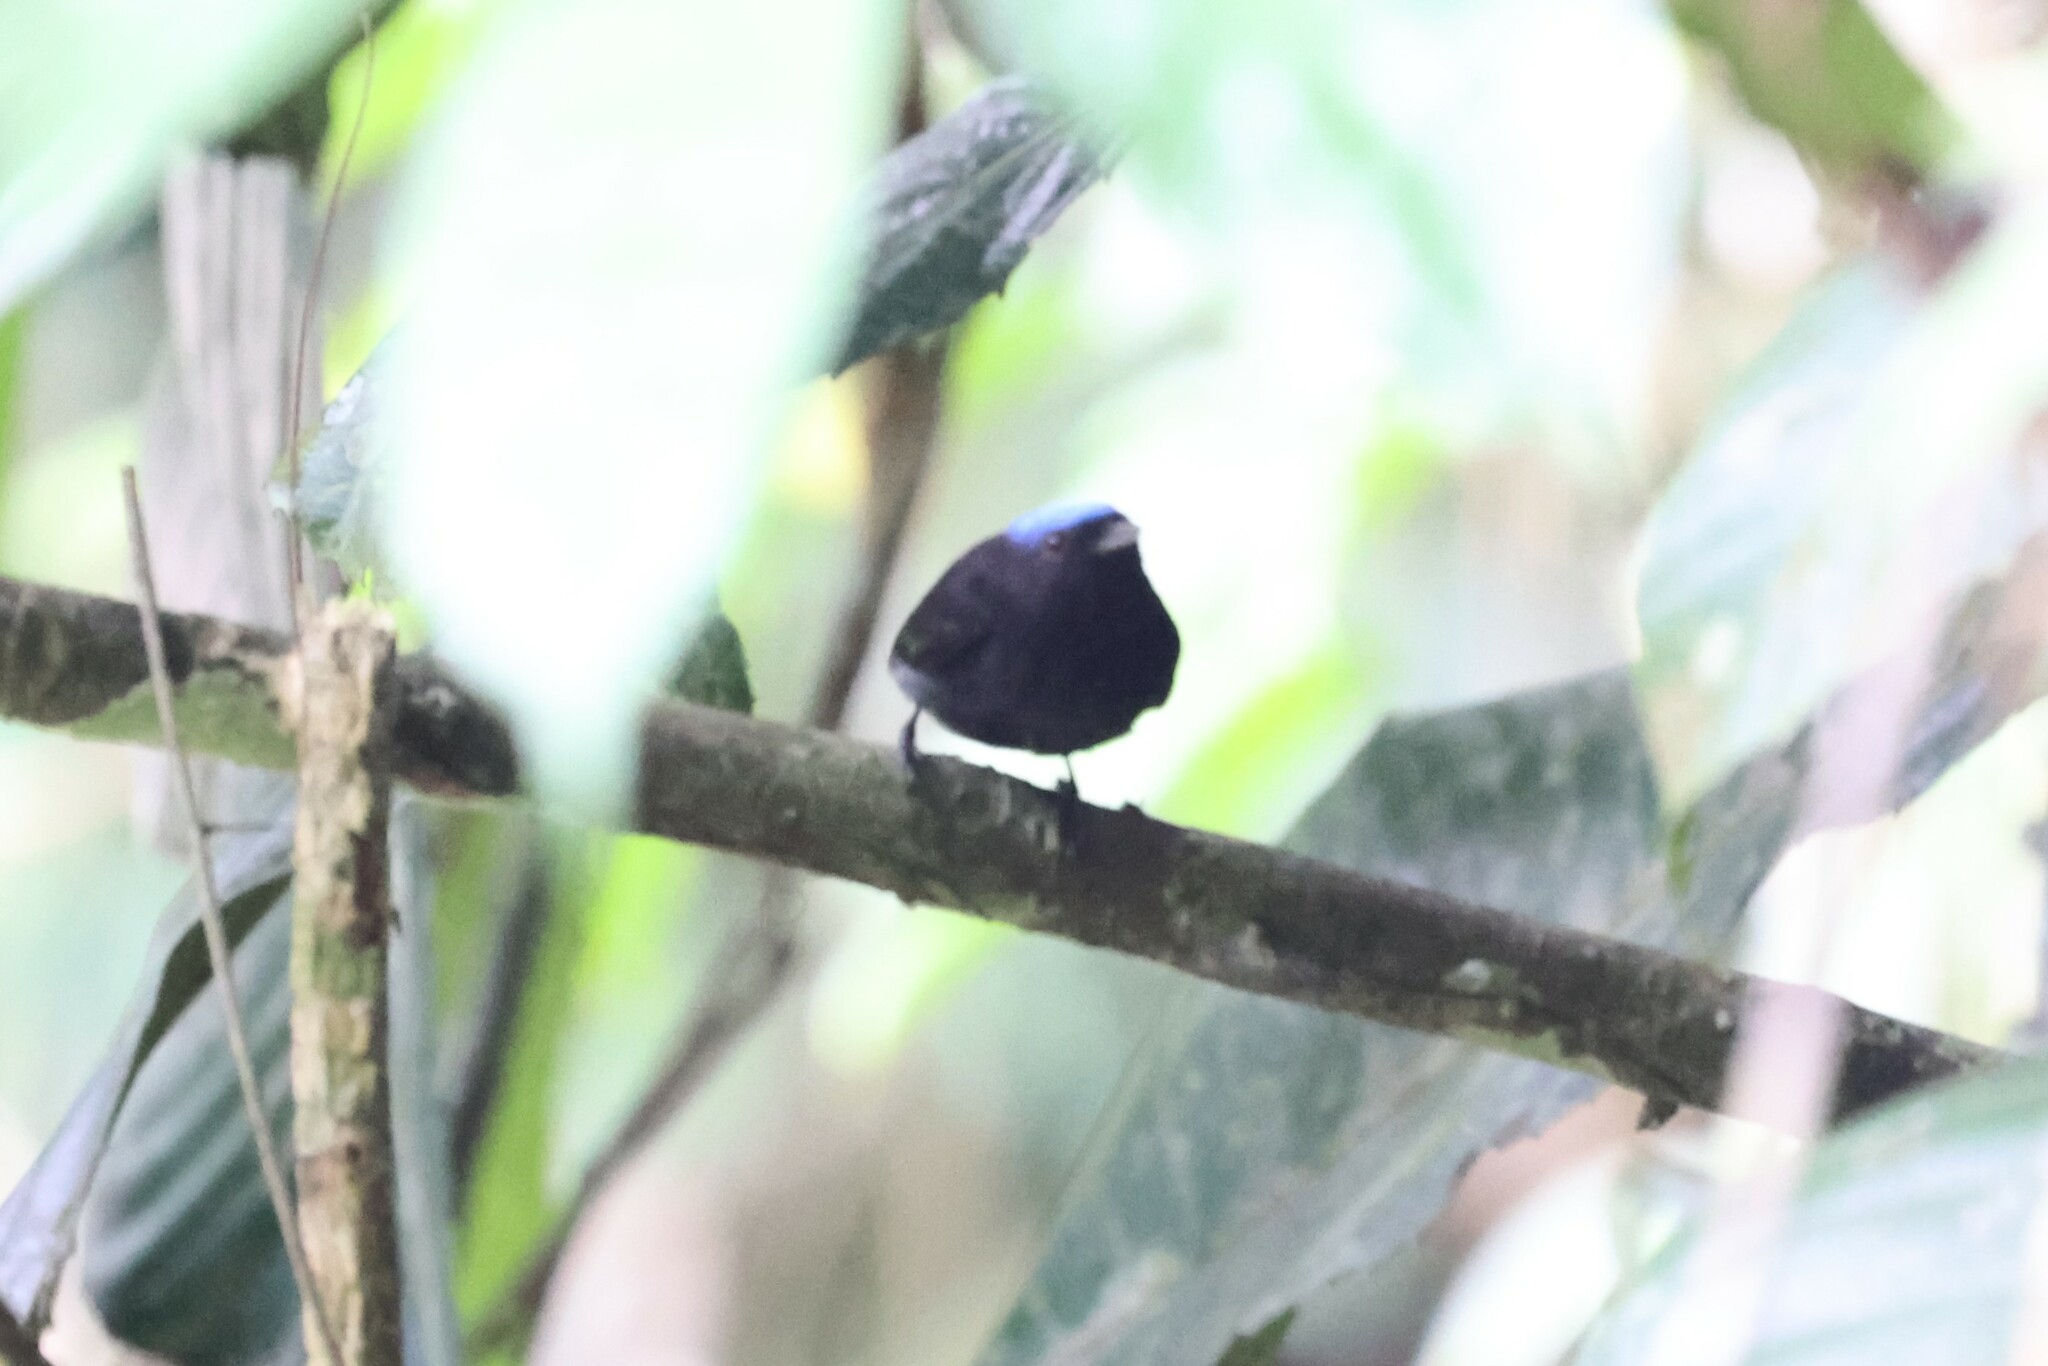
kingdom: Animalia
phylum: Chordata
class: Aves
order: Passeriformes
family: Pipridae
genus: Lepidothrix
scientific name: Lepidothrix coronata
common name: Blue-crowned manakin
